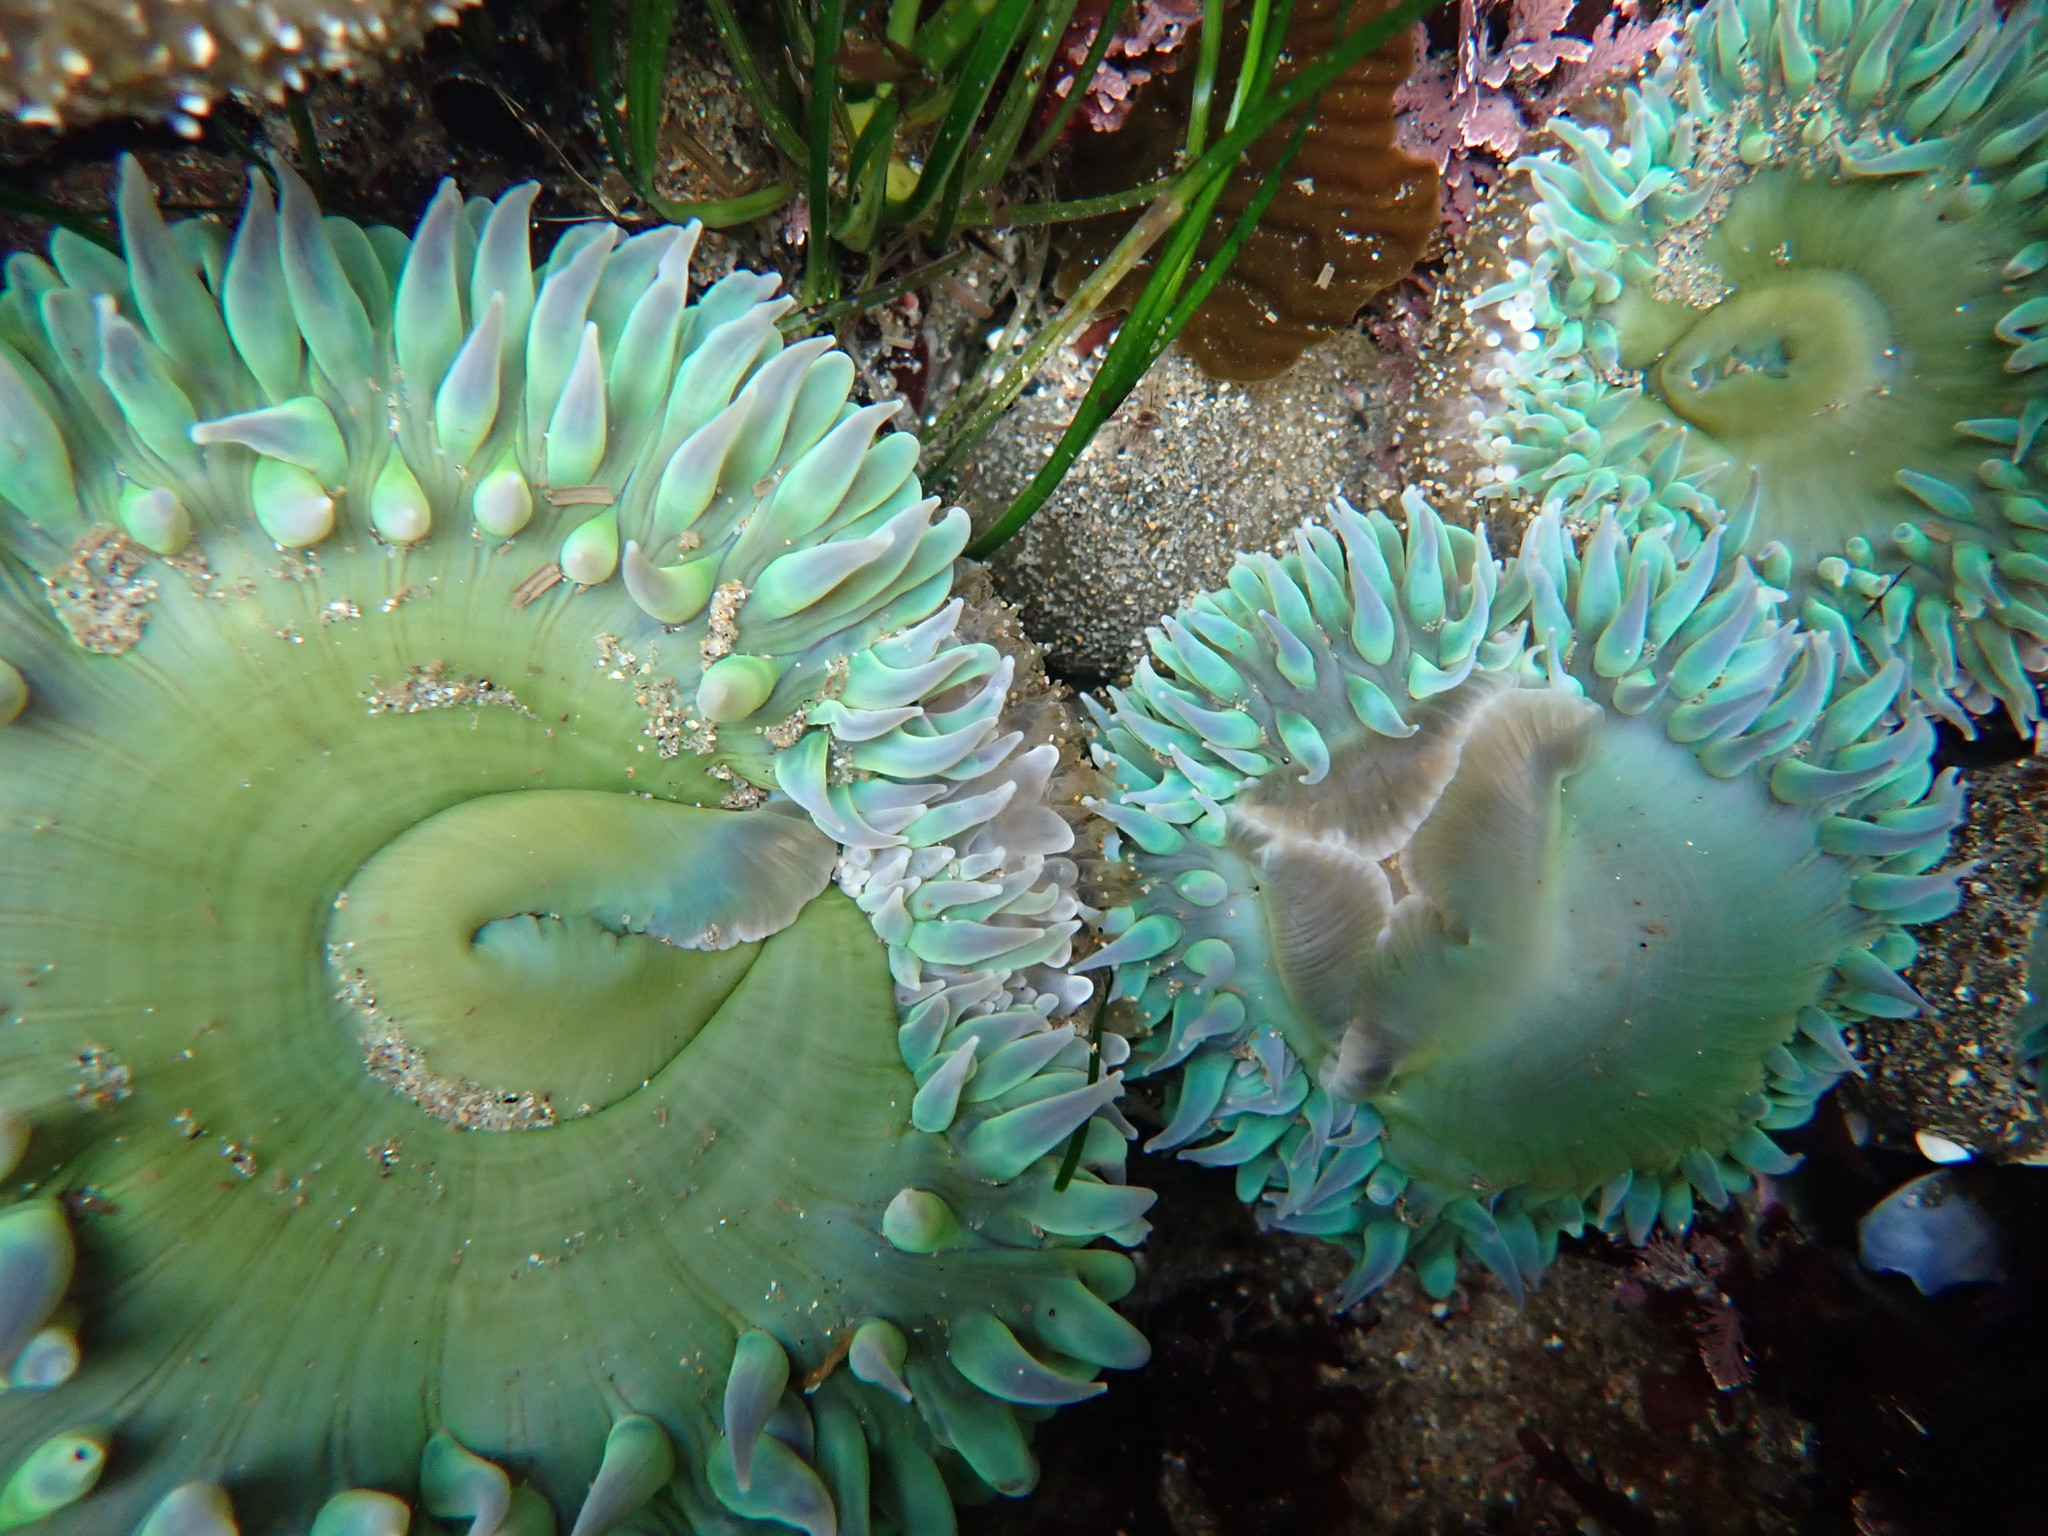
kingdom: Animalia
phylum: Cnidaria
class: Anthozoa
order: Actiniaria
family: Actiniidae
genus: Anthopleura
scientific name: Anthopleura xanthogrammica
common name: Giant green anemone
